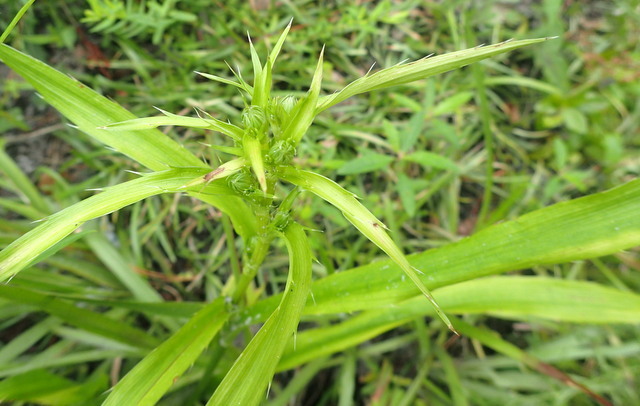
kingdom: Plantae
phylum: Tracheophyta
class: Magnoliopsida
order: Apiales
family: Apiaceae
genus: Eryngium
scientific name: Eryngium yuccifolium
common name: Button eryngo
